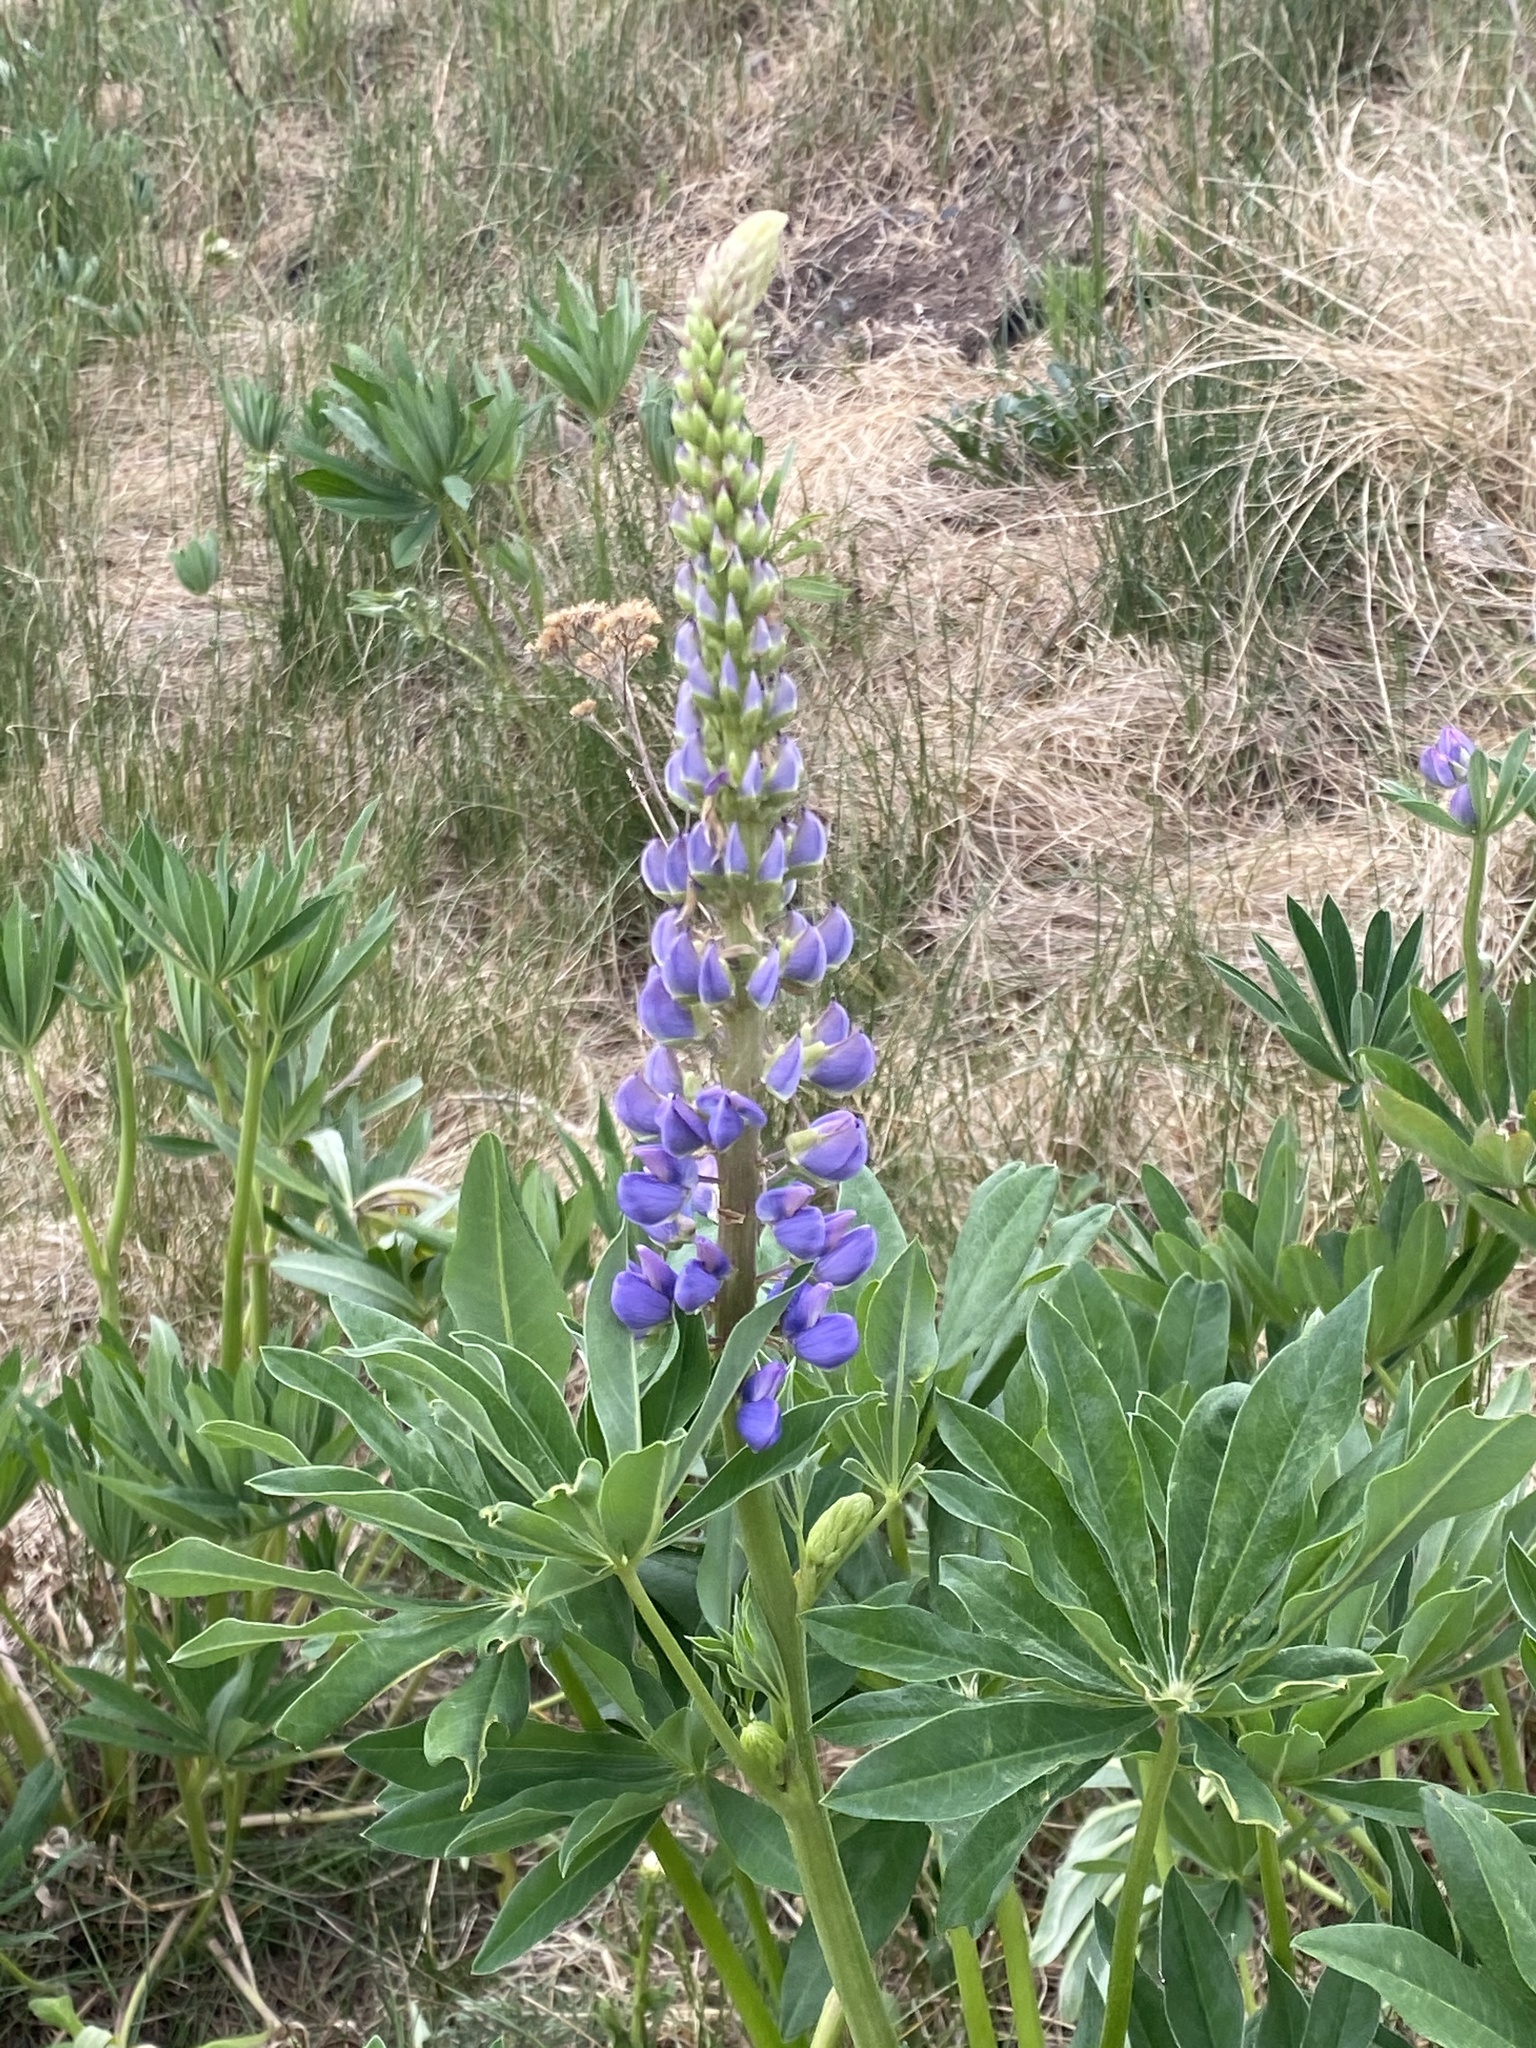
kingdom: Plantae
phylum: Tracheophyta
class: Magnoliopsida
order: Fabales
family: Fabaceae
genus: Lupinus
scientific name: Lupinus polyphyllus
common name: Garden lupin
